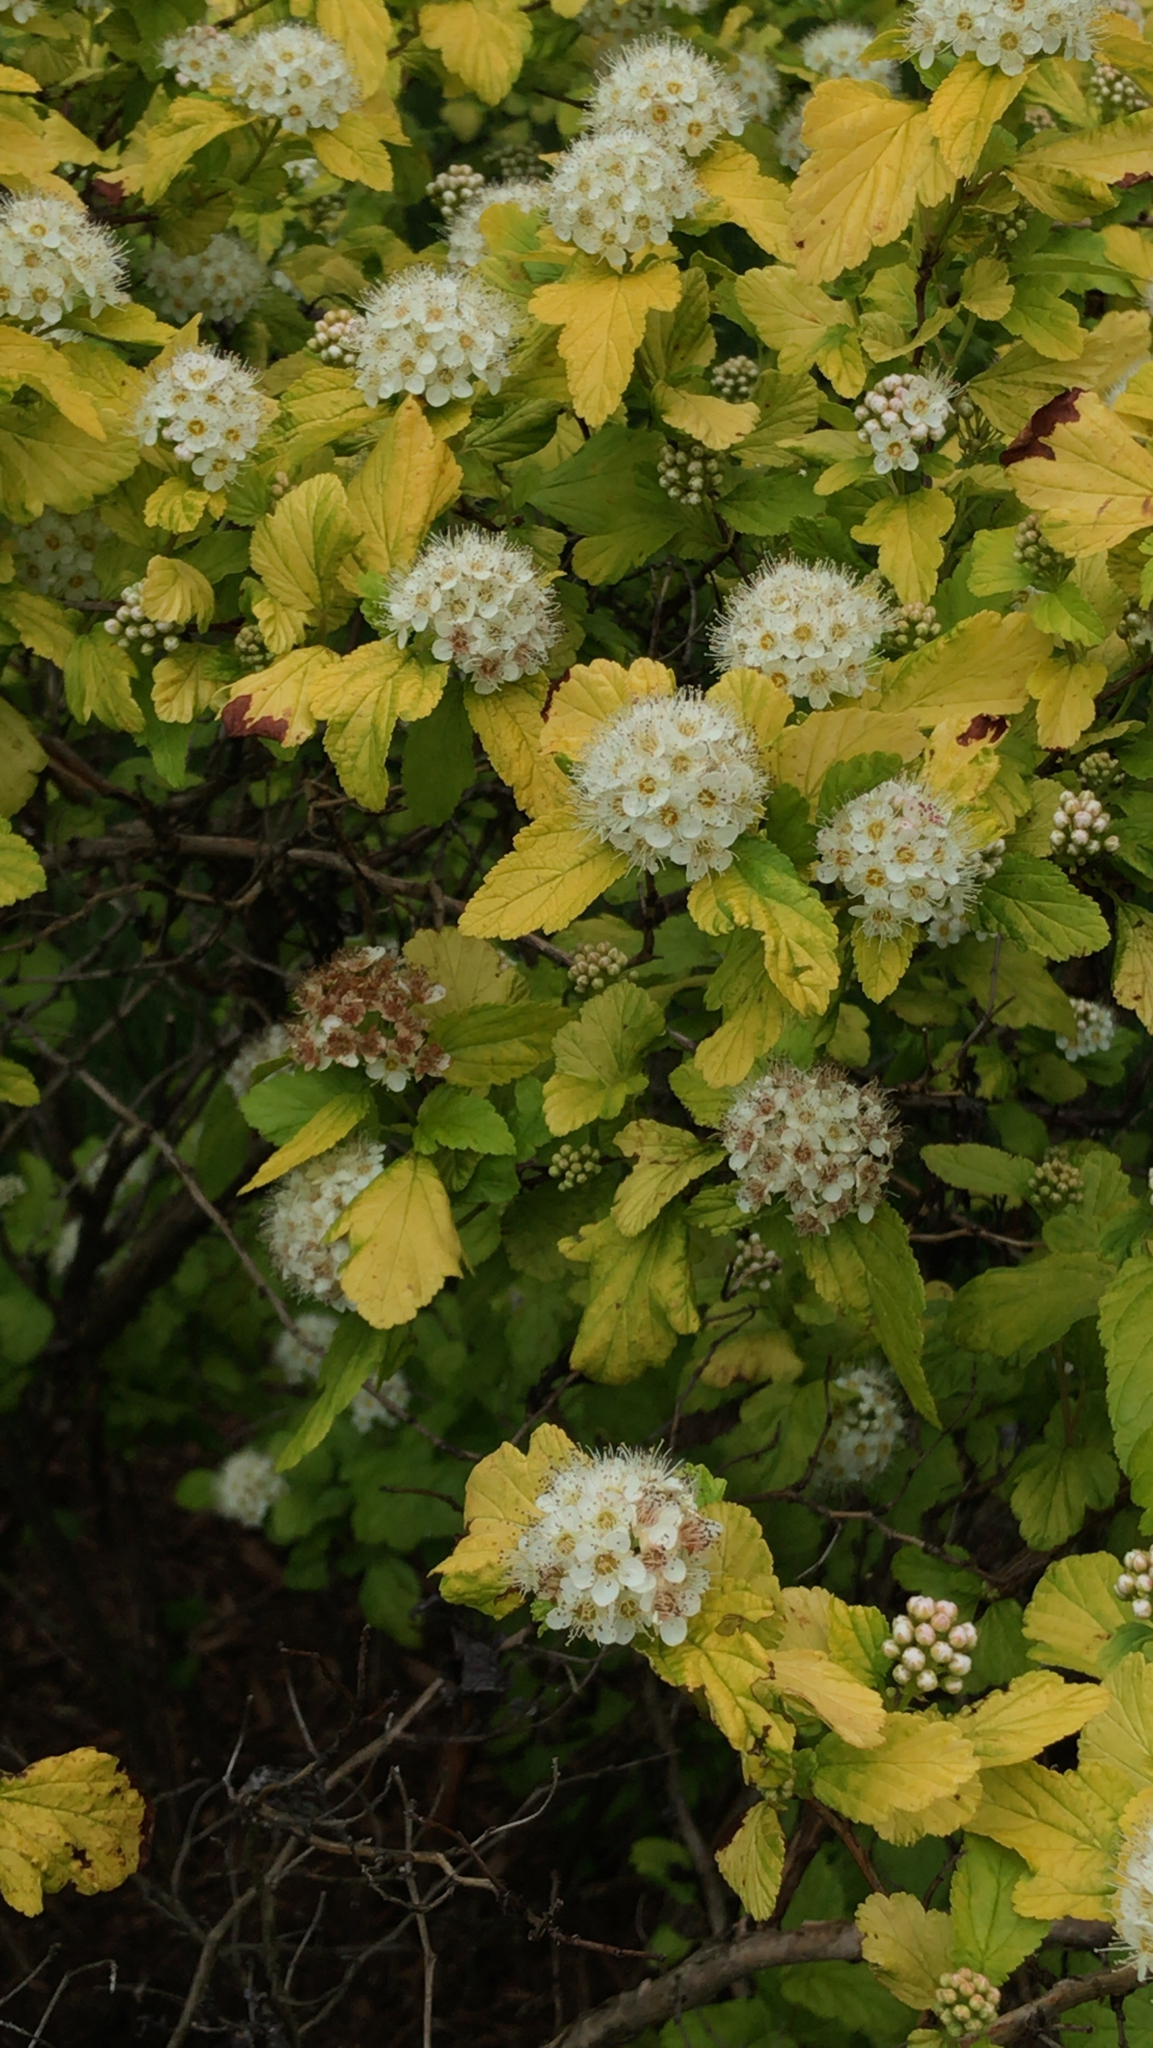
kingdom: Plantae
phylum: Tracheophyta
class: Magnoliopsida
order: Rosales
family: Rosaceae
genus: Physocarpus
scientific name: Physocarpus opulifolius
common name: Ninebark
